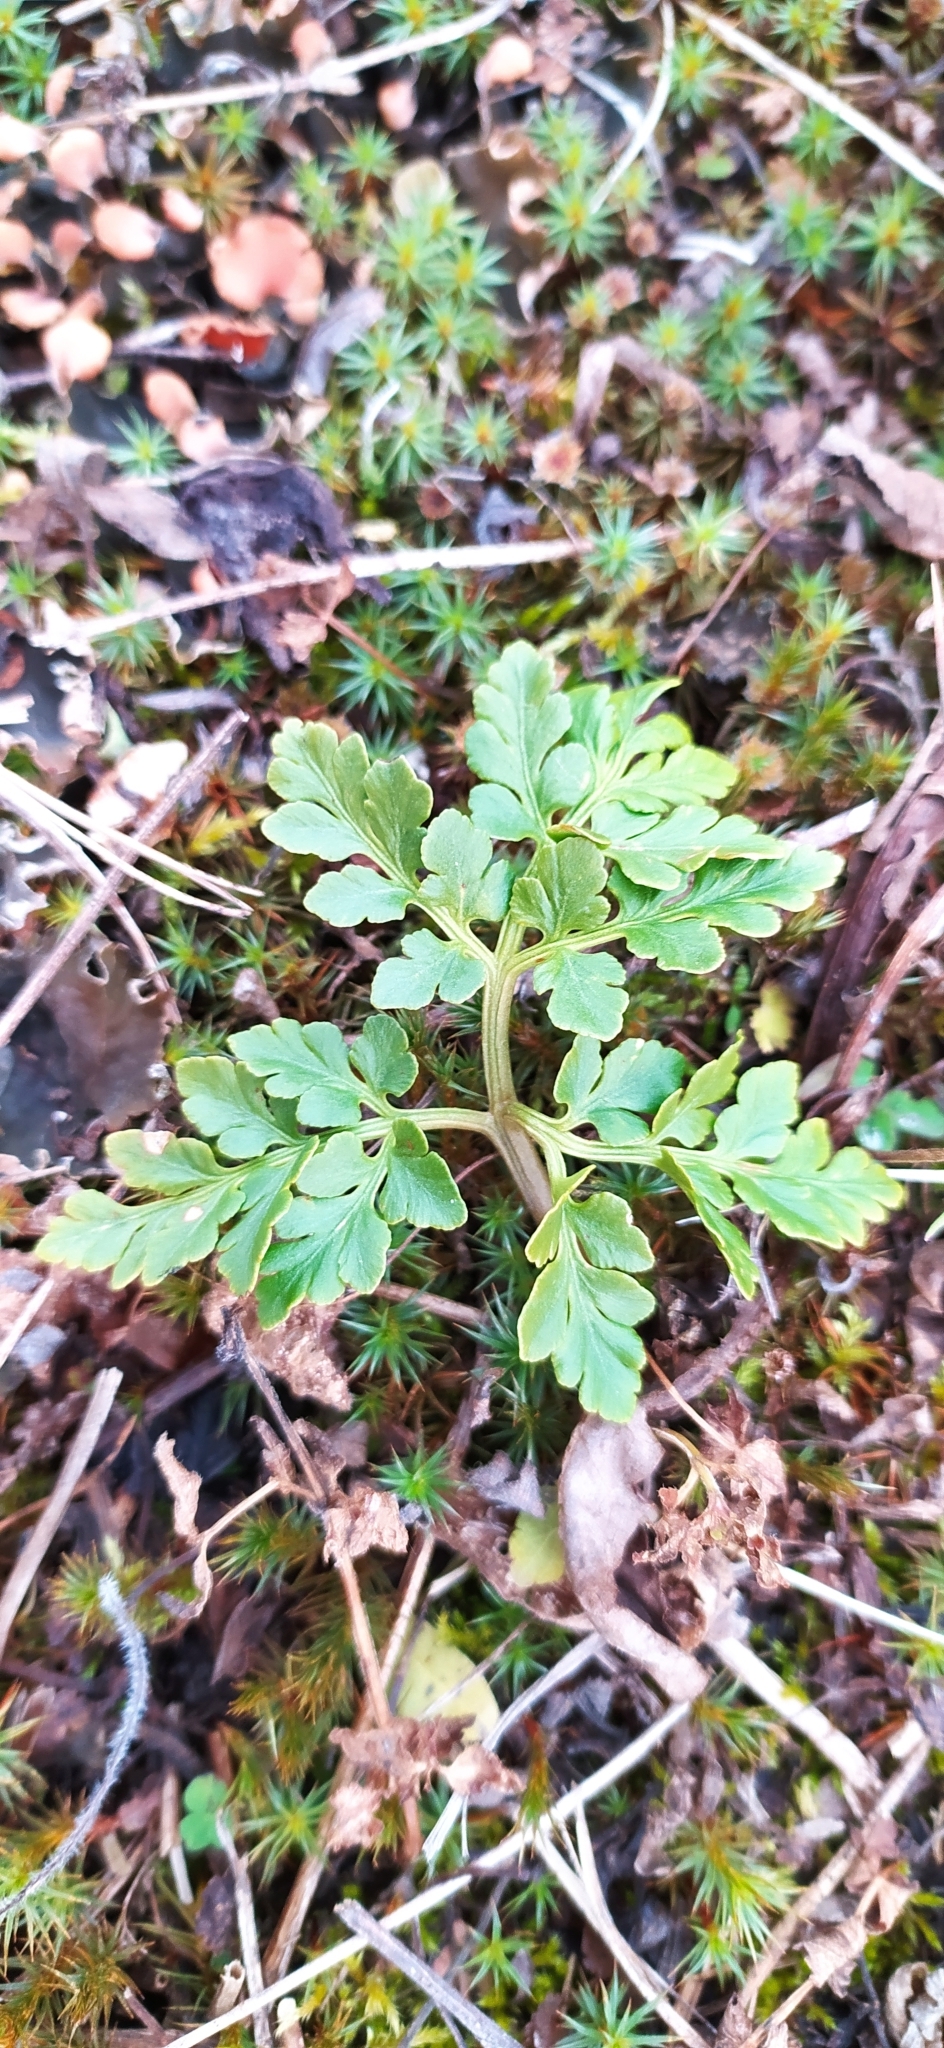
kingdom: Plantae
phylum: Tracheophyta
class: Polypodiopsida
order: Ophioglossales
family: Ophioglossaceae
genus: Sceptridium
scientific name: Sceptridium multifidum
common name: Leathery grape fern
